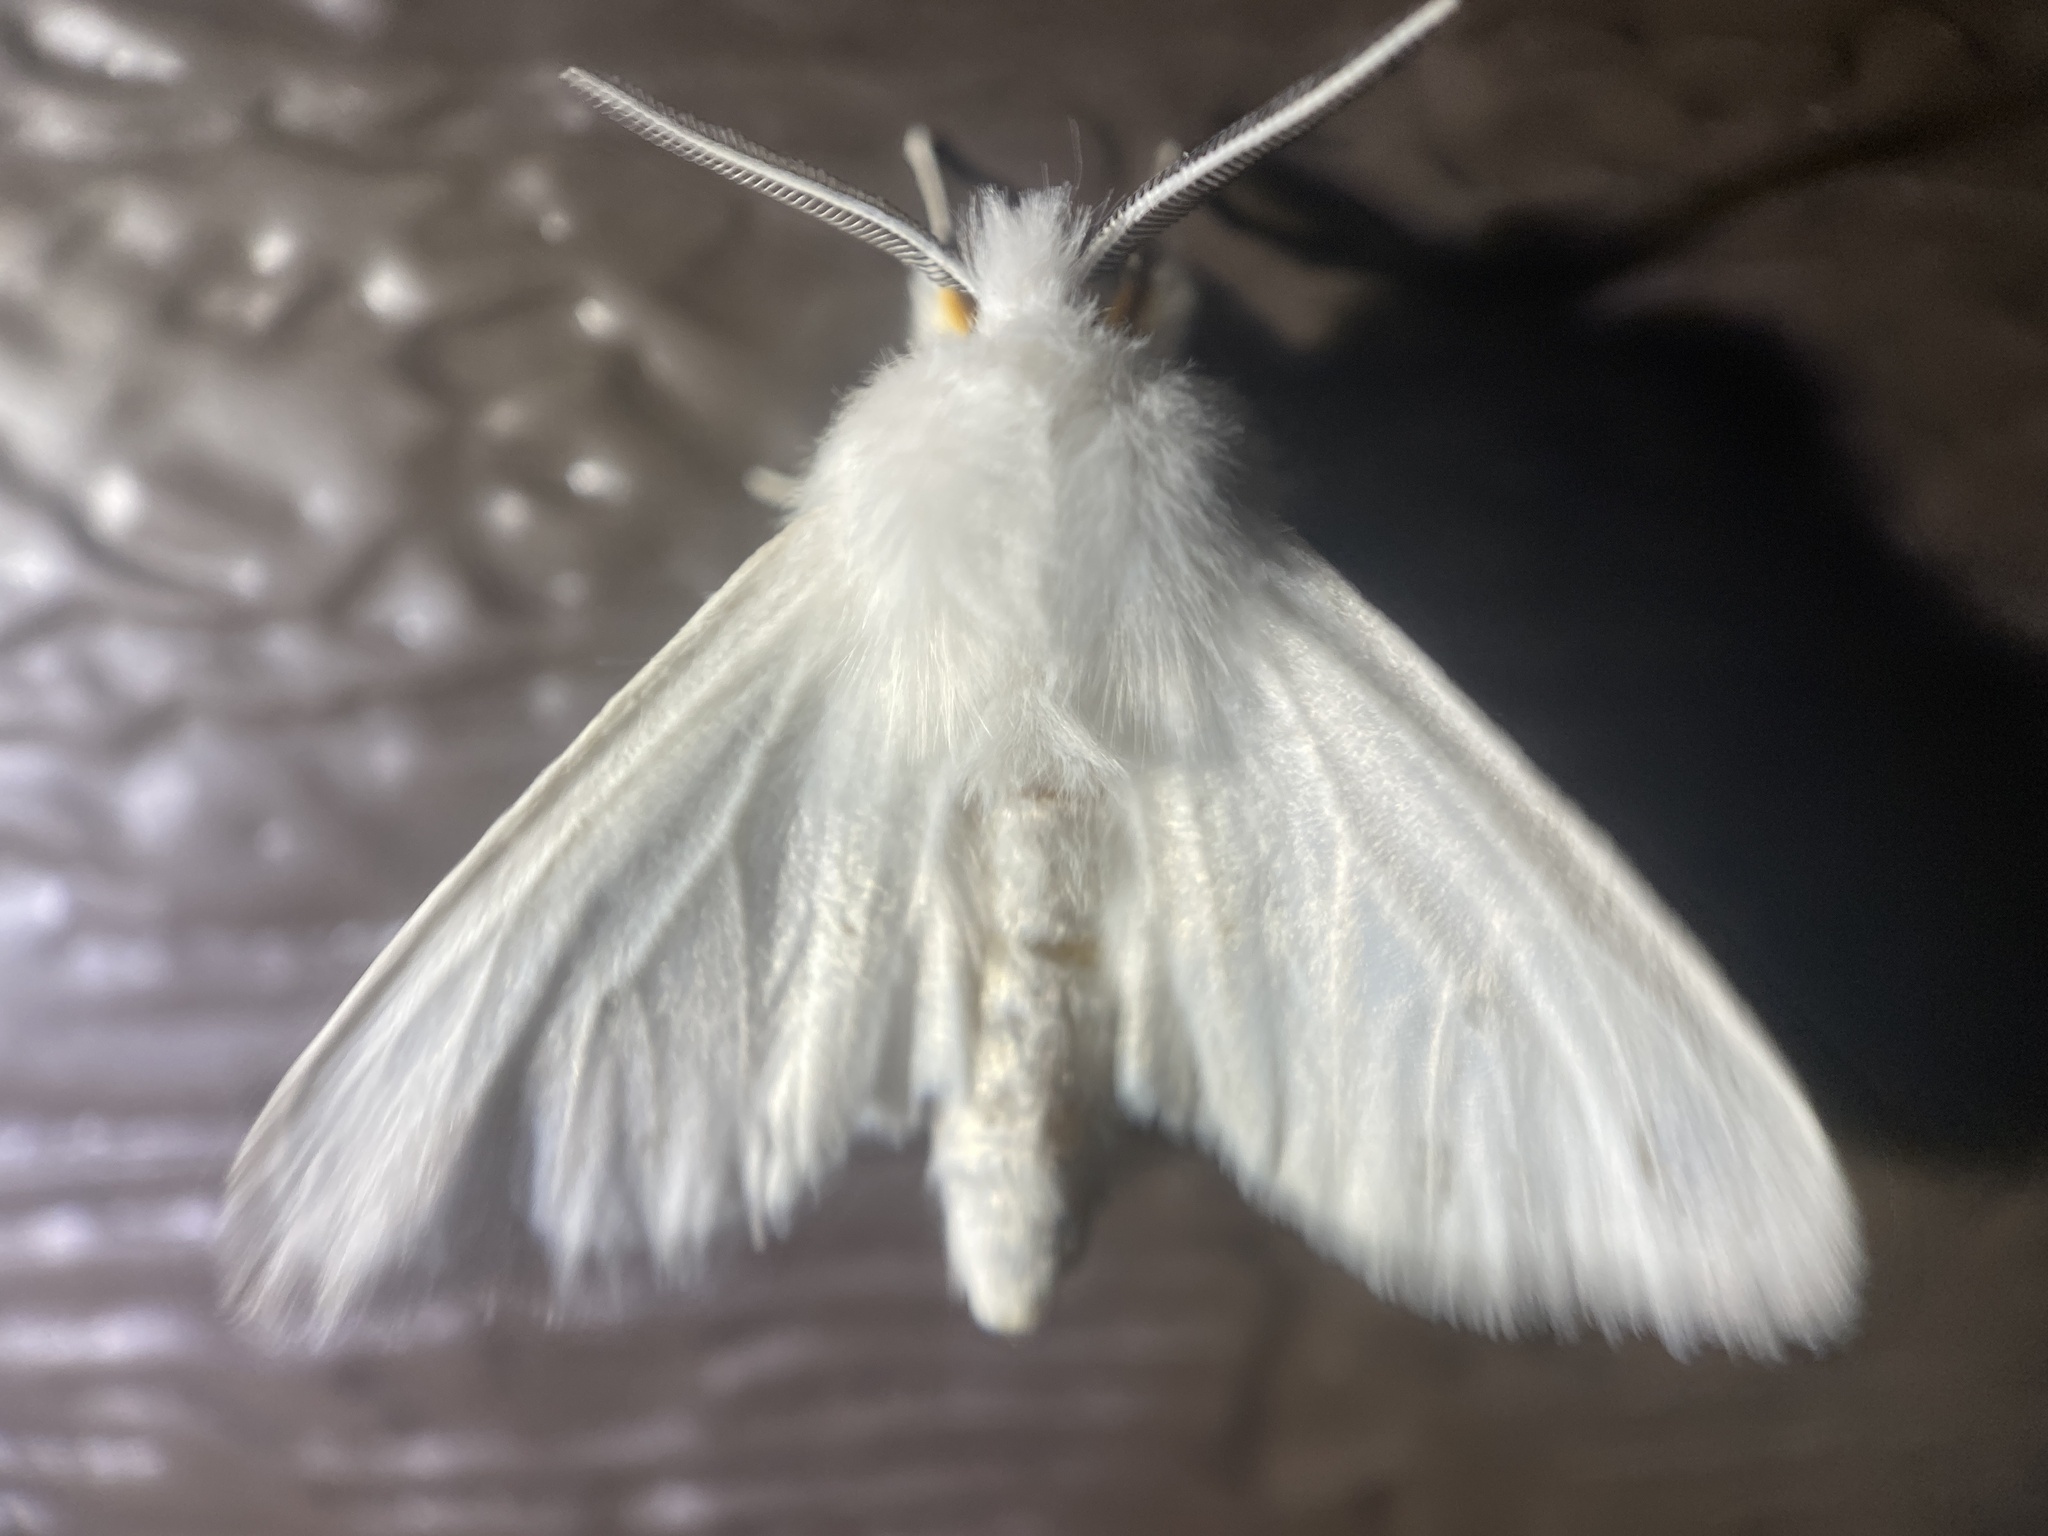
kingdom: Animalia
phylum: Arthropoda
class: Insecta
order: Lepidoptera
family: Erebidae
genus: Spilosoma
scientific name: Spilosoma congrua
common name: Agreeable tiger moth
